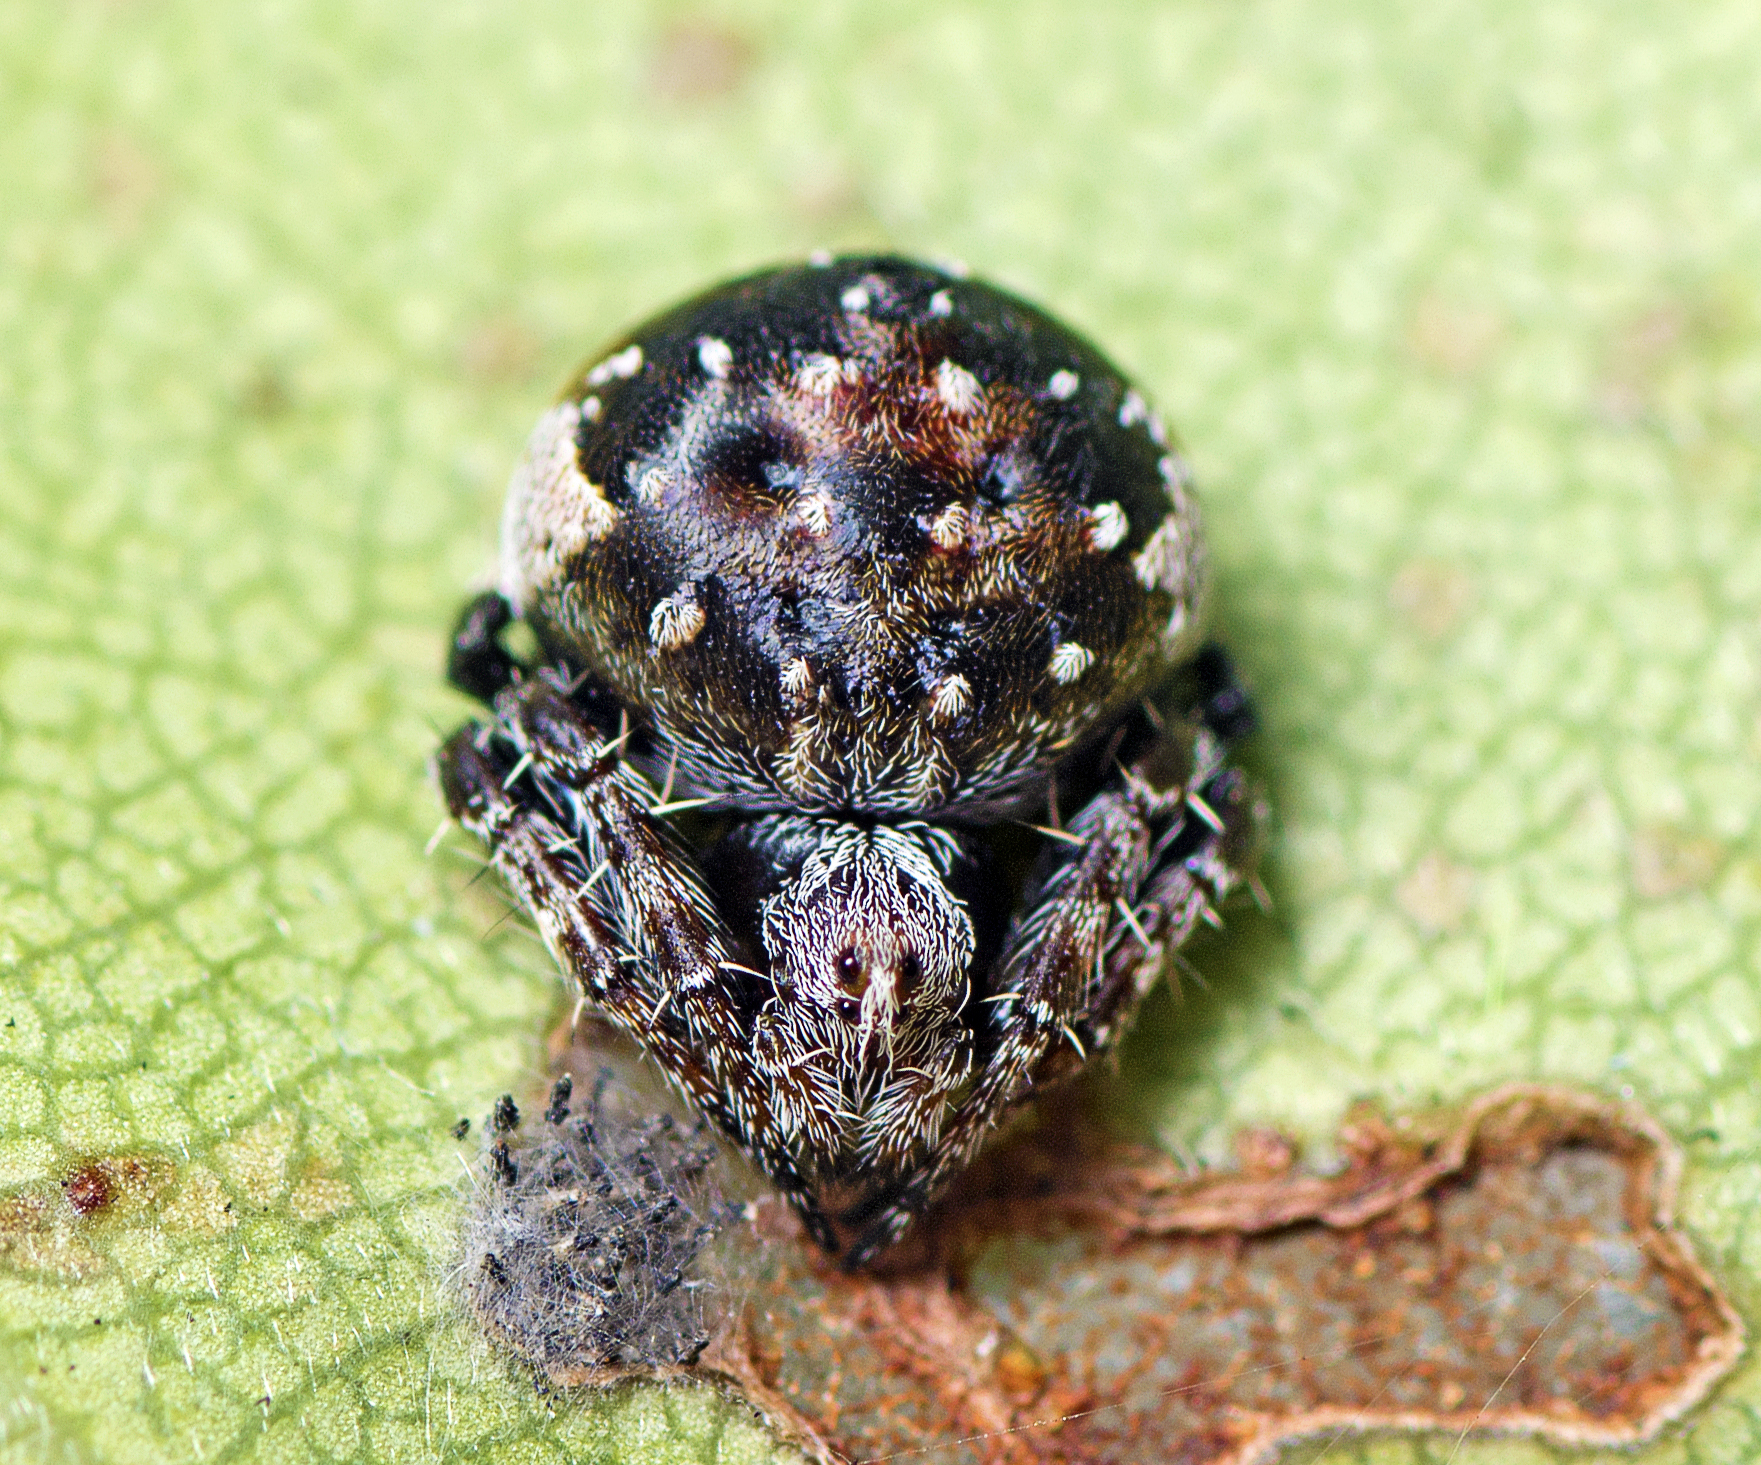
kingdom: Animalia
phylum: Arthropoda
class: Arachnida
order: Araneae
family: Araneidae
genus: Araneus
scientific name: Araneus rotundulus
